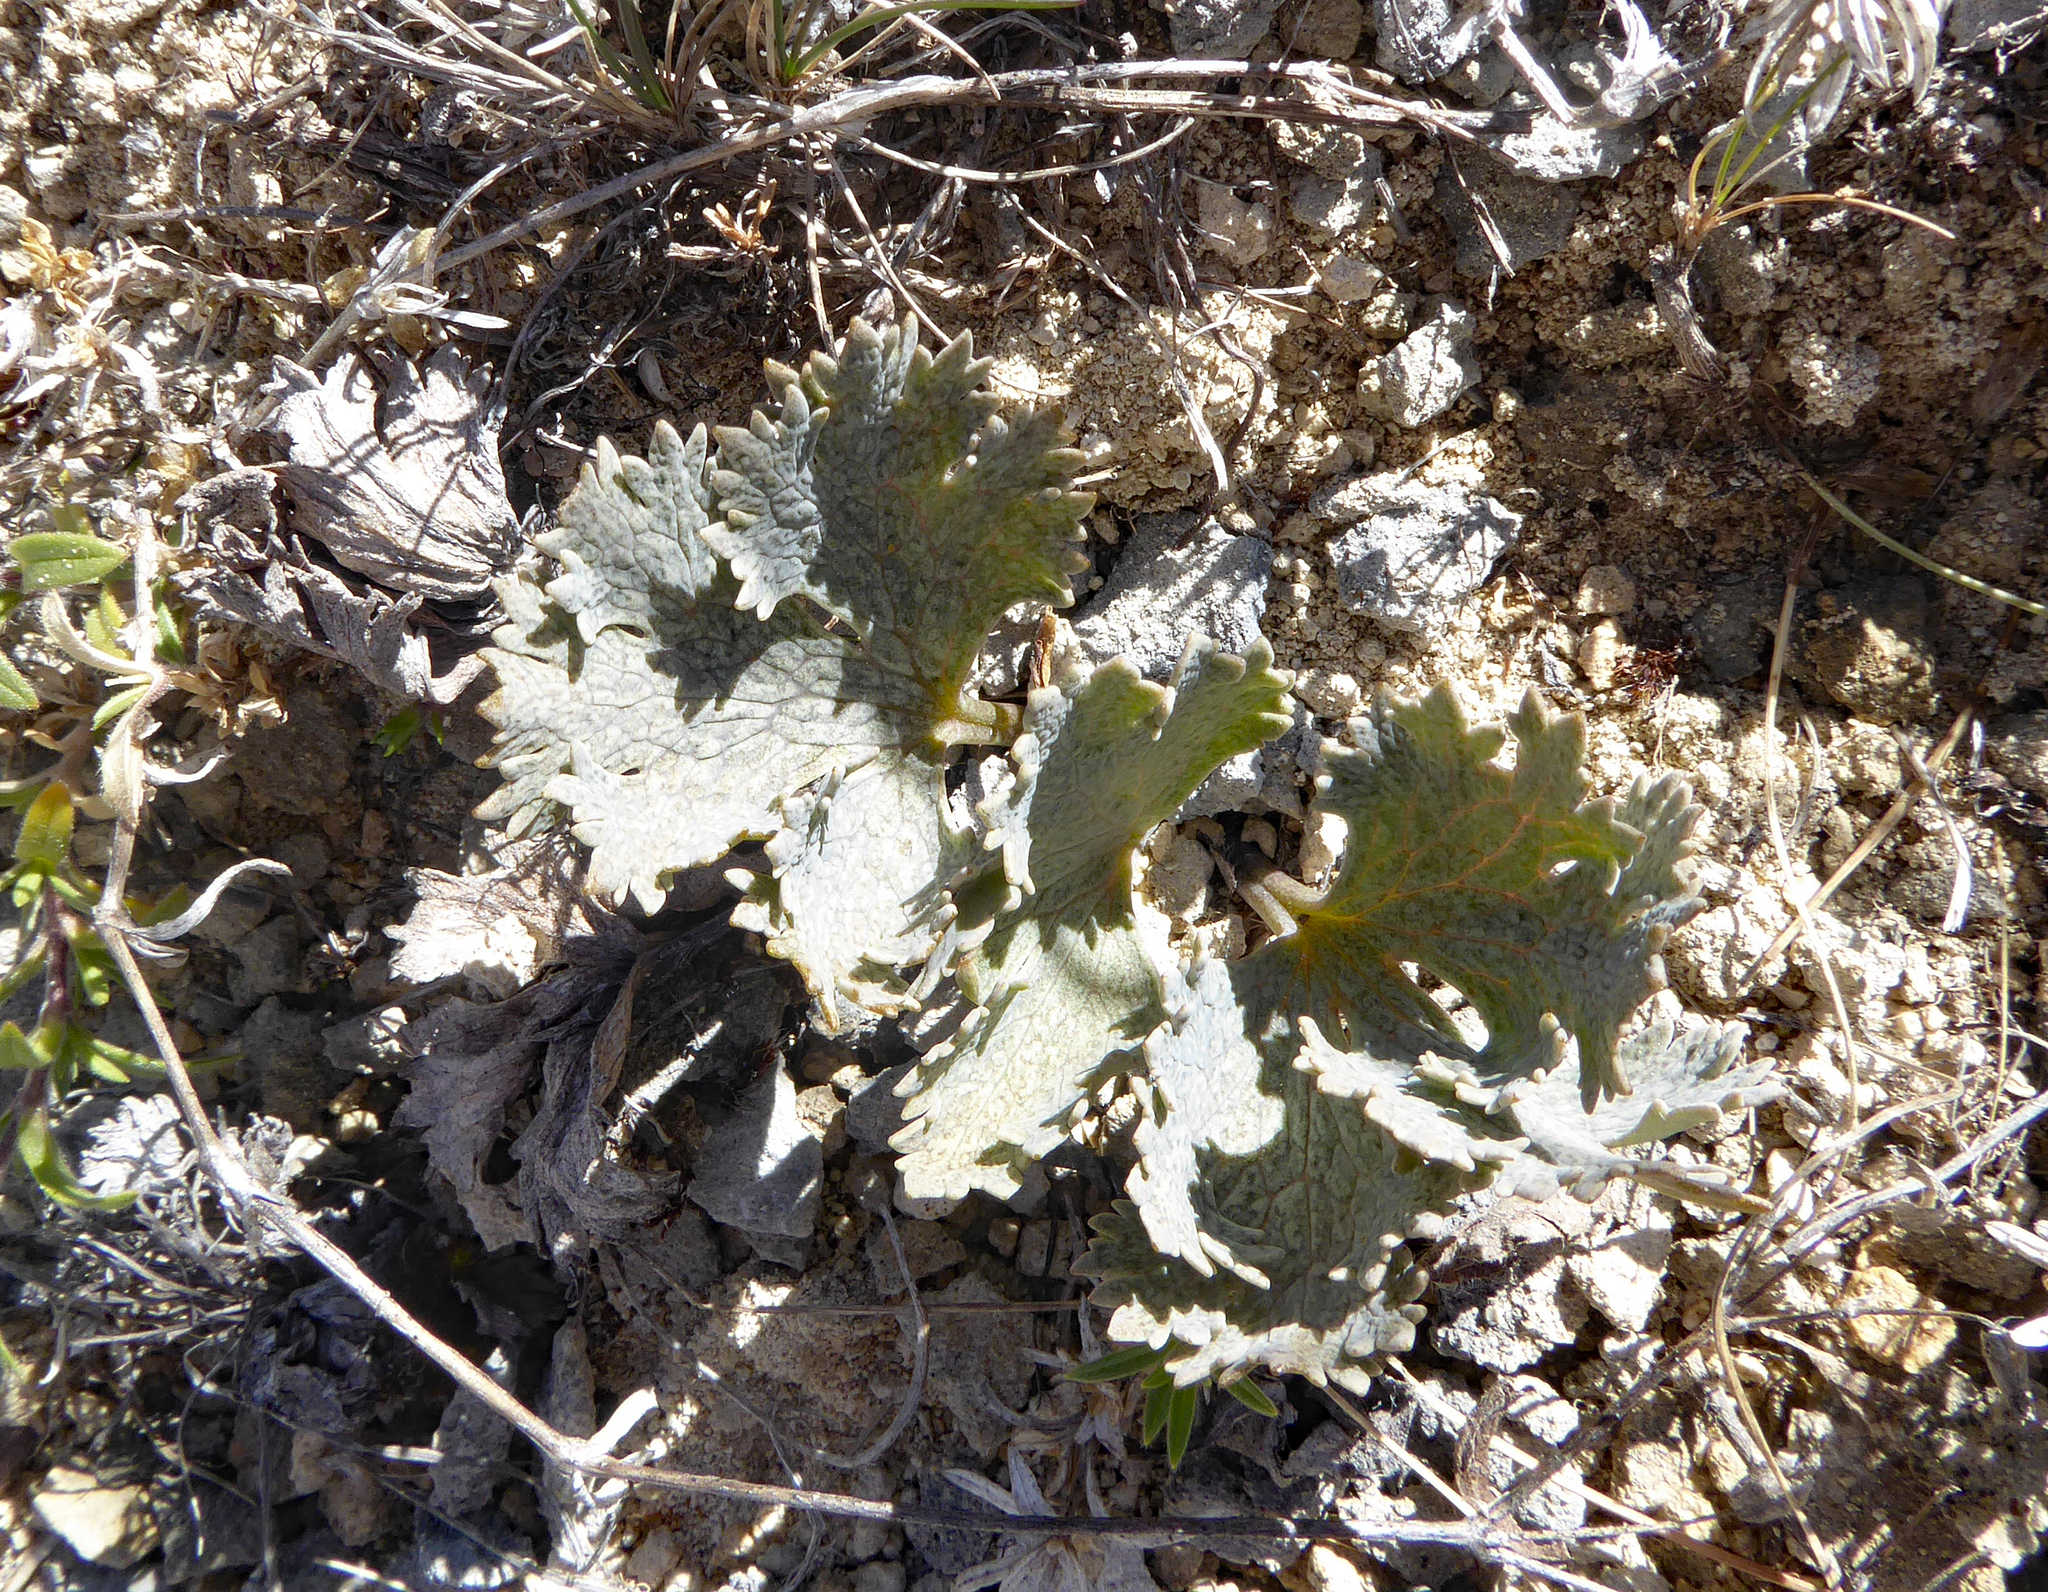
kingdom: Plantae
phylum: Tracheophyta
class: Magnoliopsida
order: Ranunculales
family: Ranunculaceae
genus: Ranunculus
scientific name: Ranunculus paucifolius
